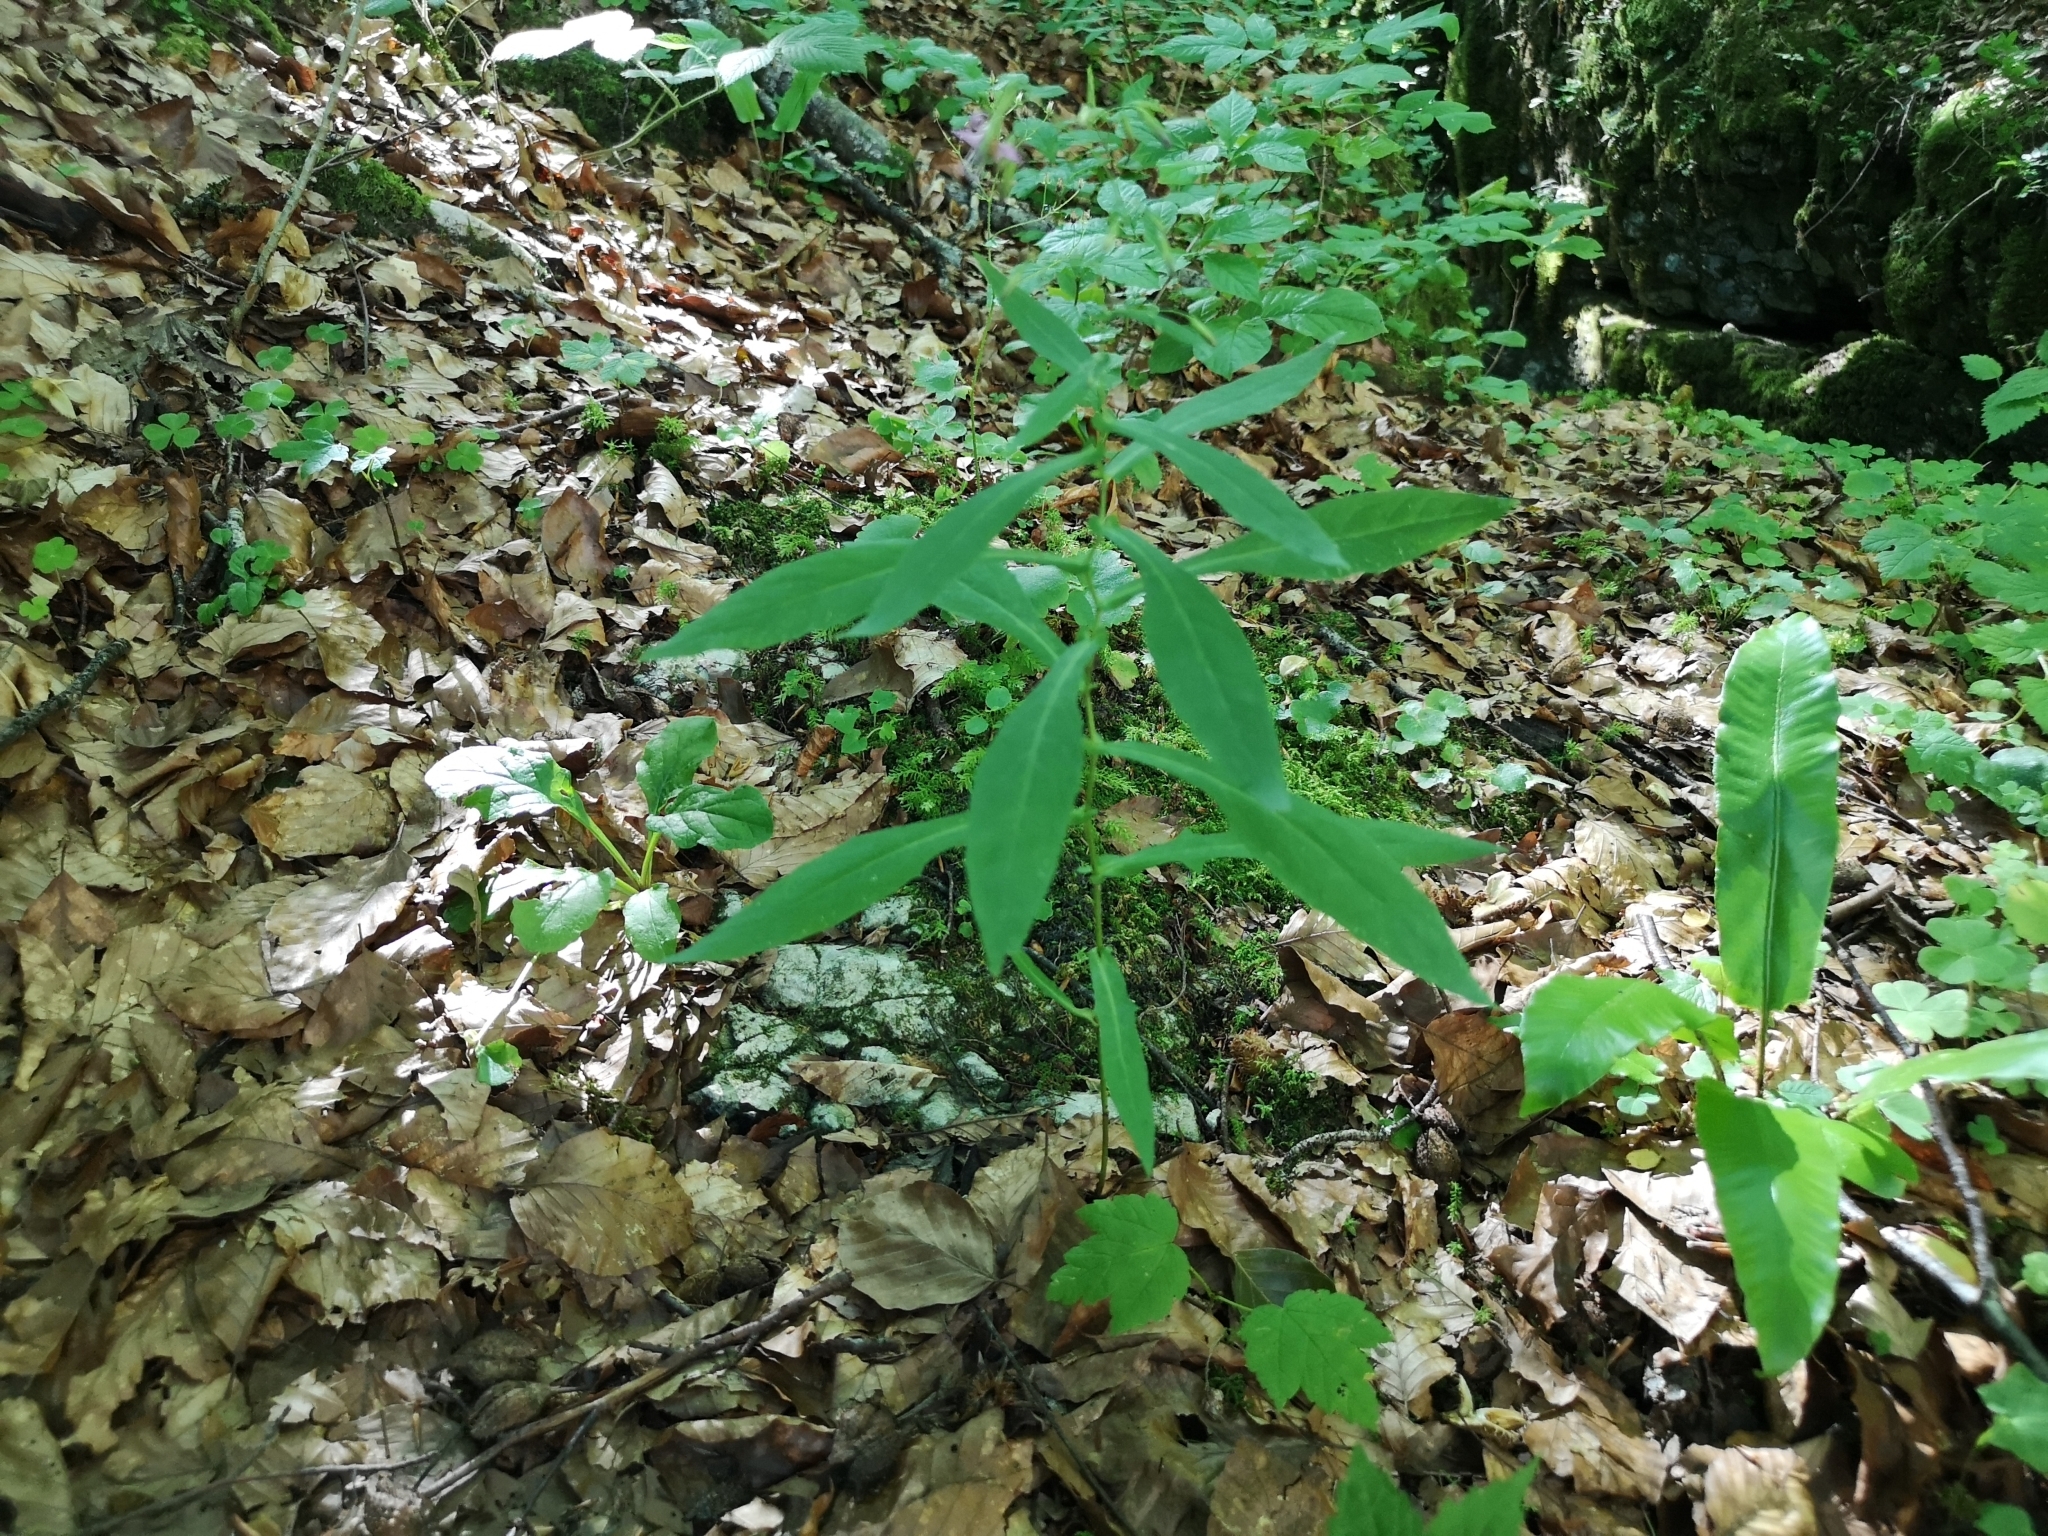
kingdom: Plantae
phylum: Tracheophyta
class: Magnoliopsida
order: Asterales
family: Asteraceae
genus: Prenanthes
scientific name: Prenanthes purpurea
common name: Purple lettuce
